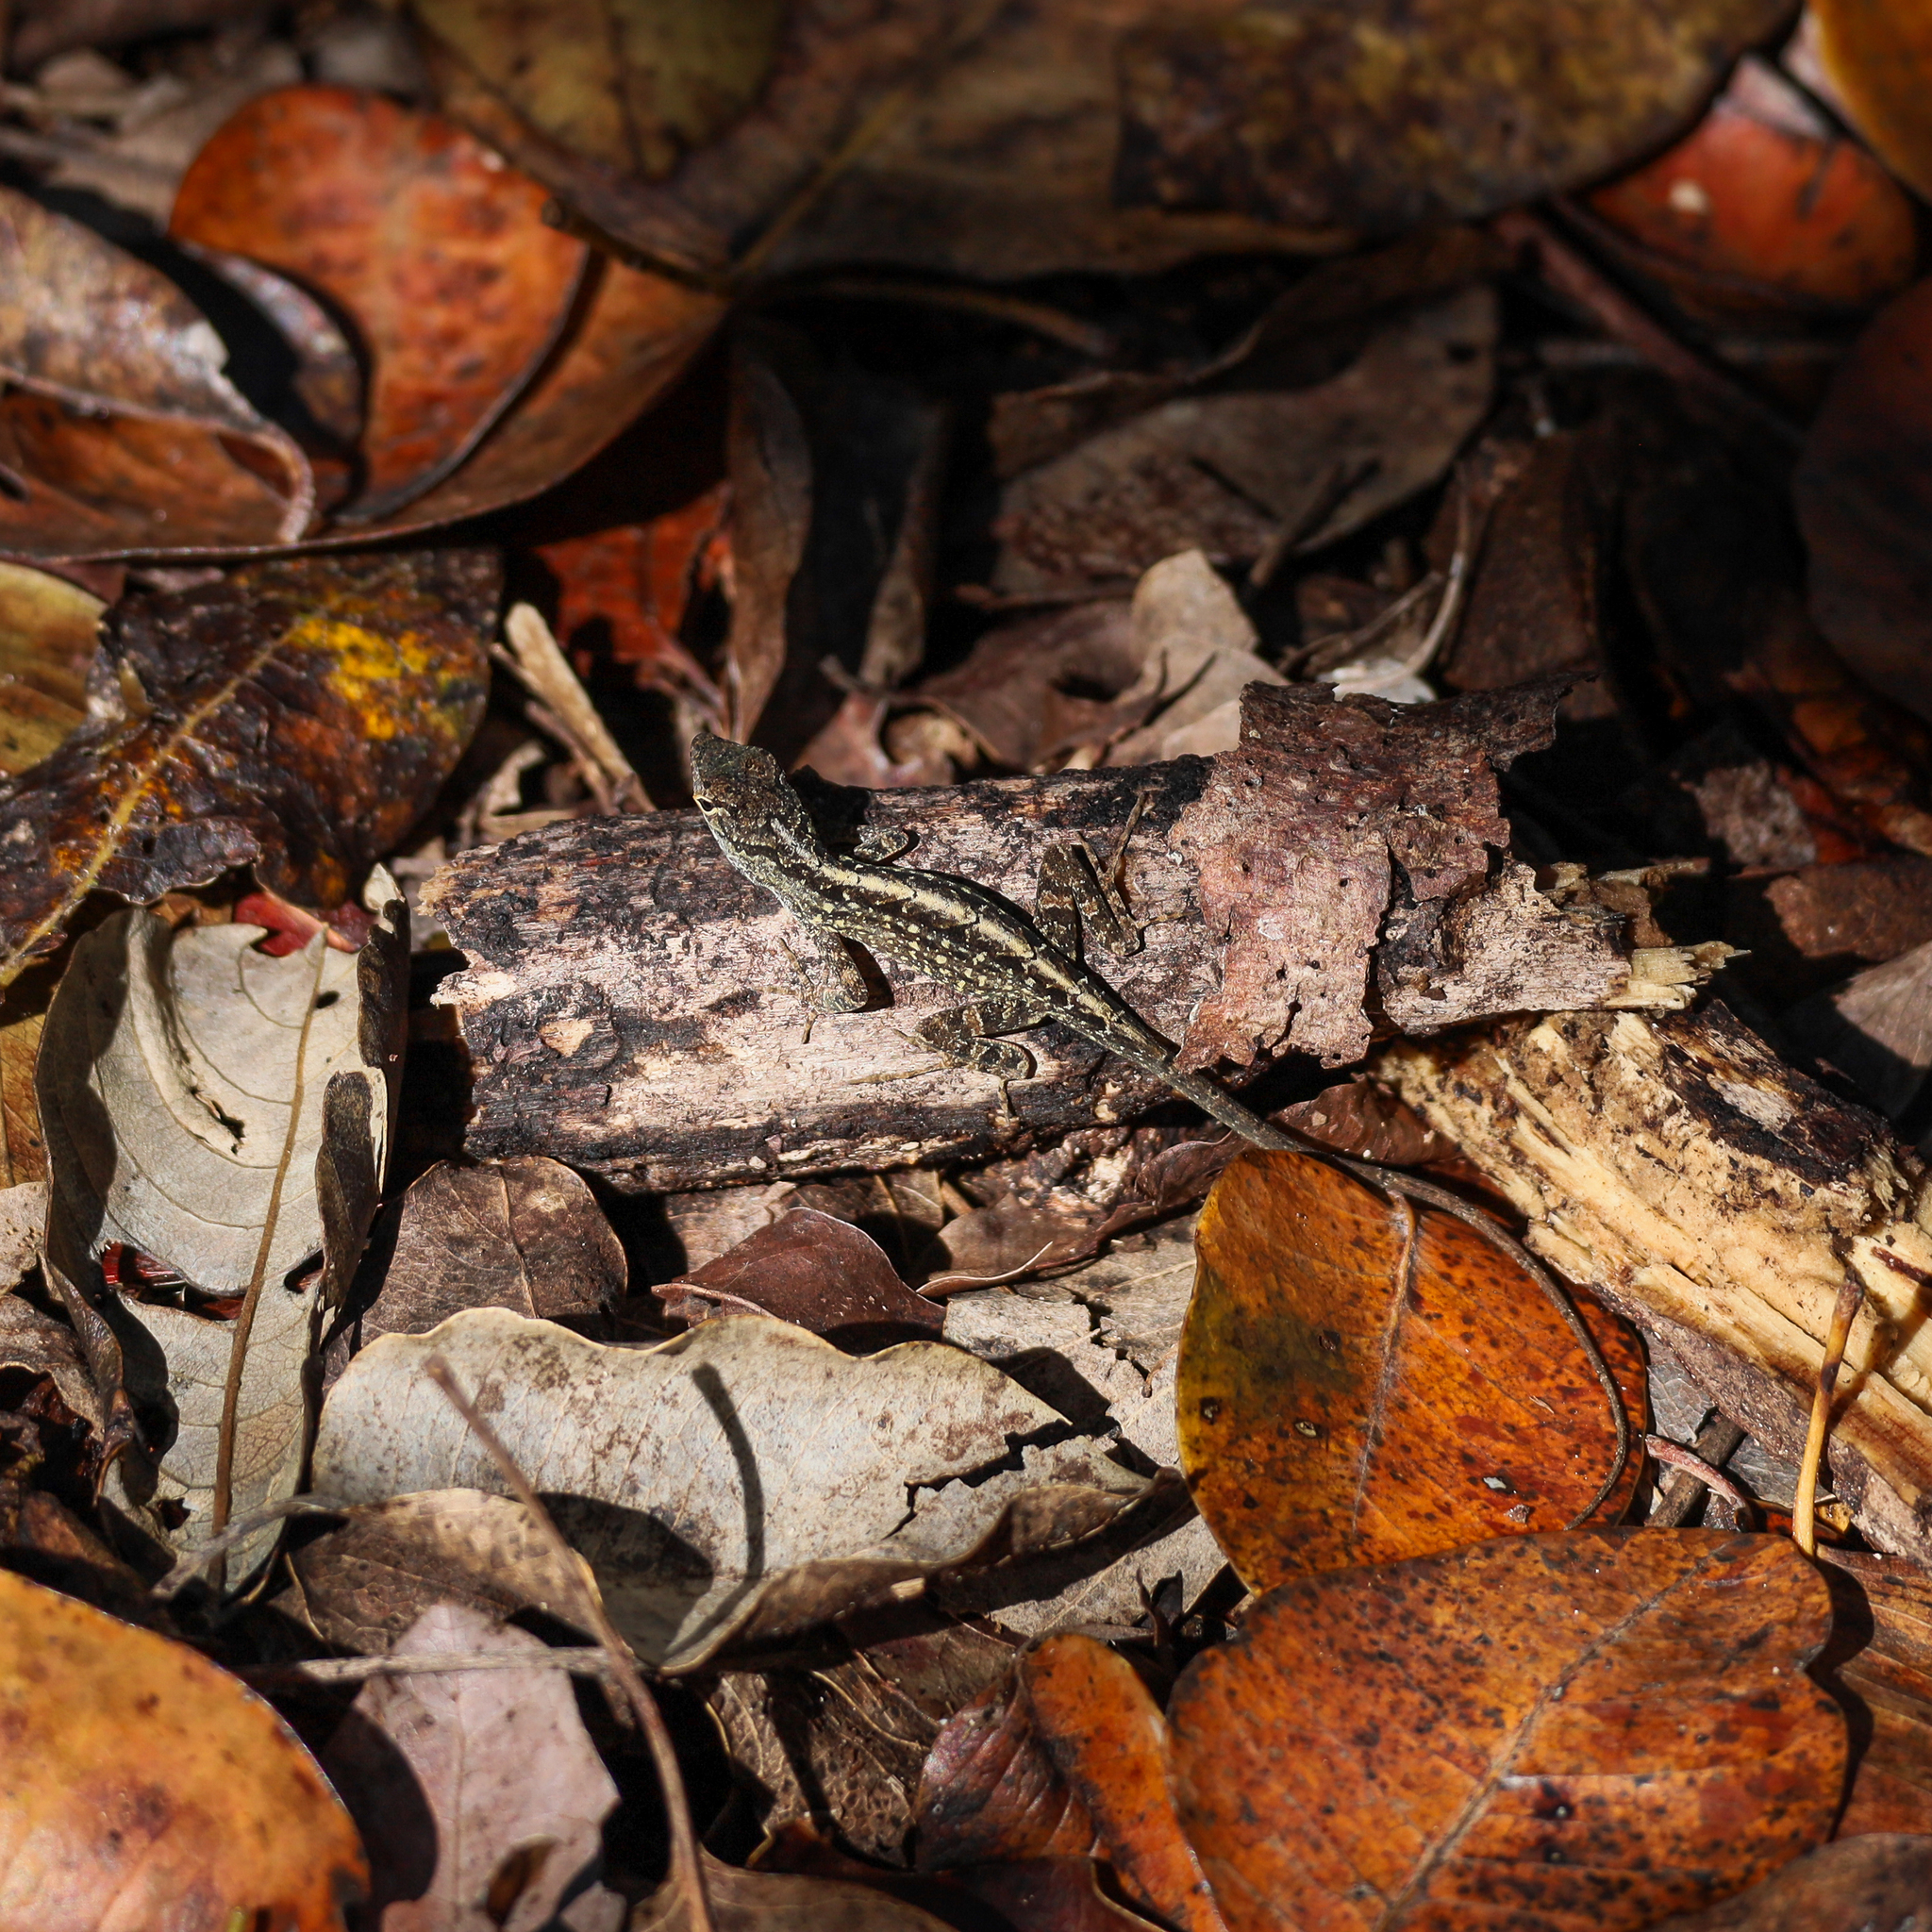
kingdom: Animalia
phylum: Chordata
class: Squamata
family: Dactyloidae
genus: Anolis
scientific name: Anolis sagrei
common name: Brown anole
